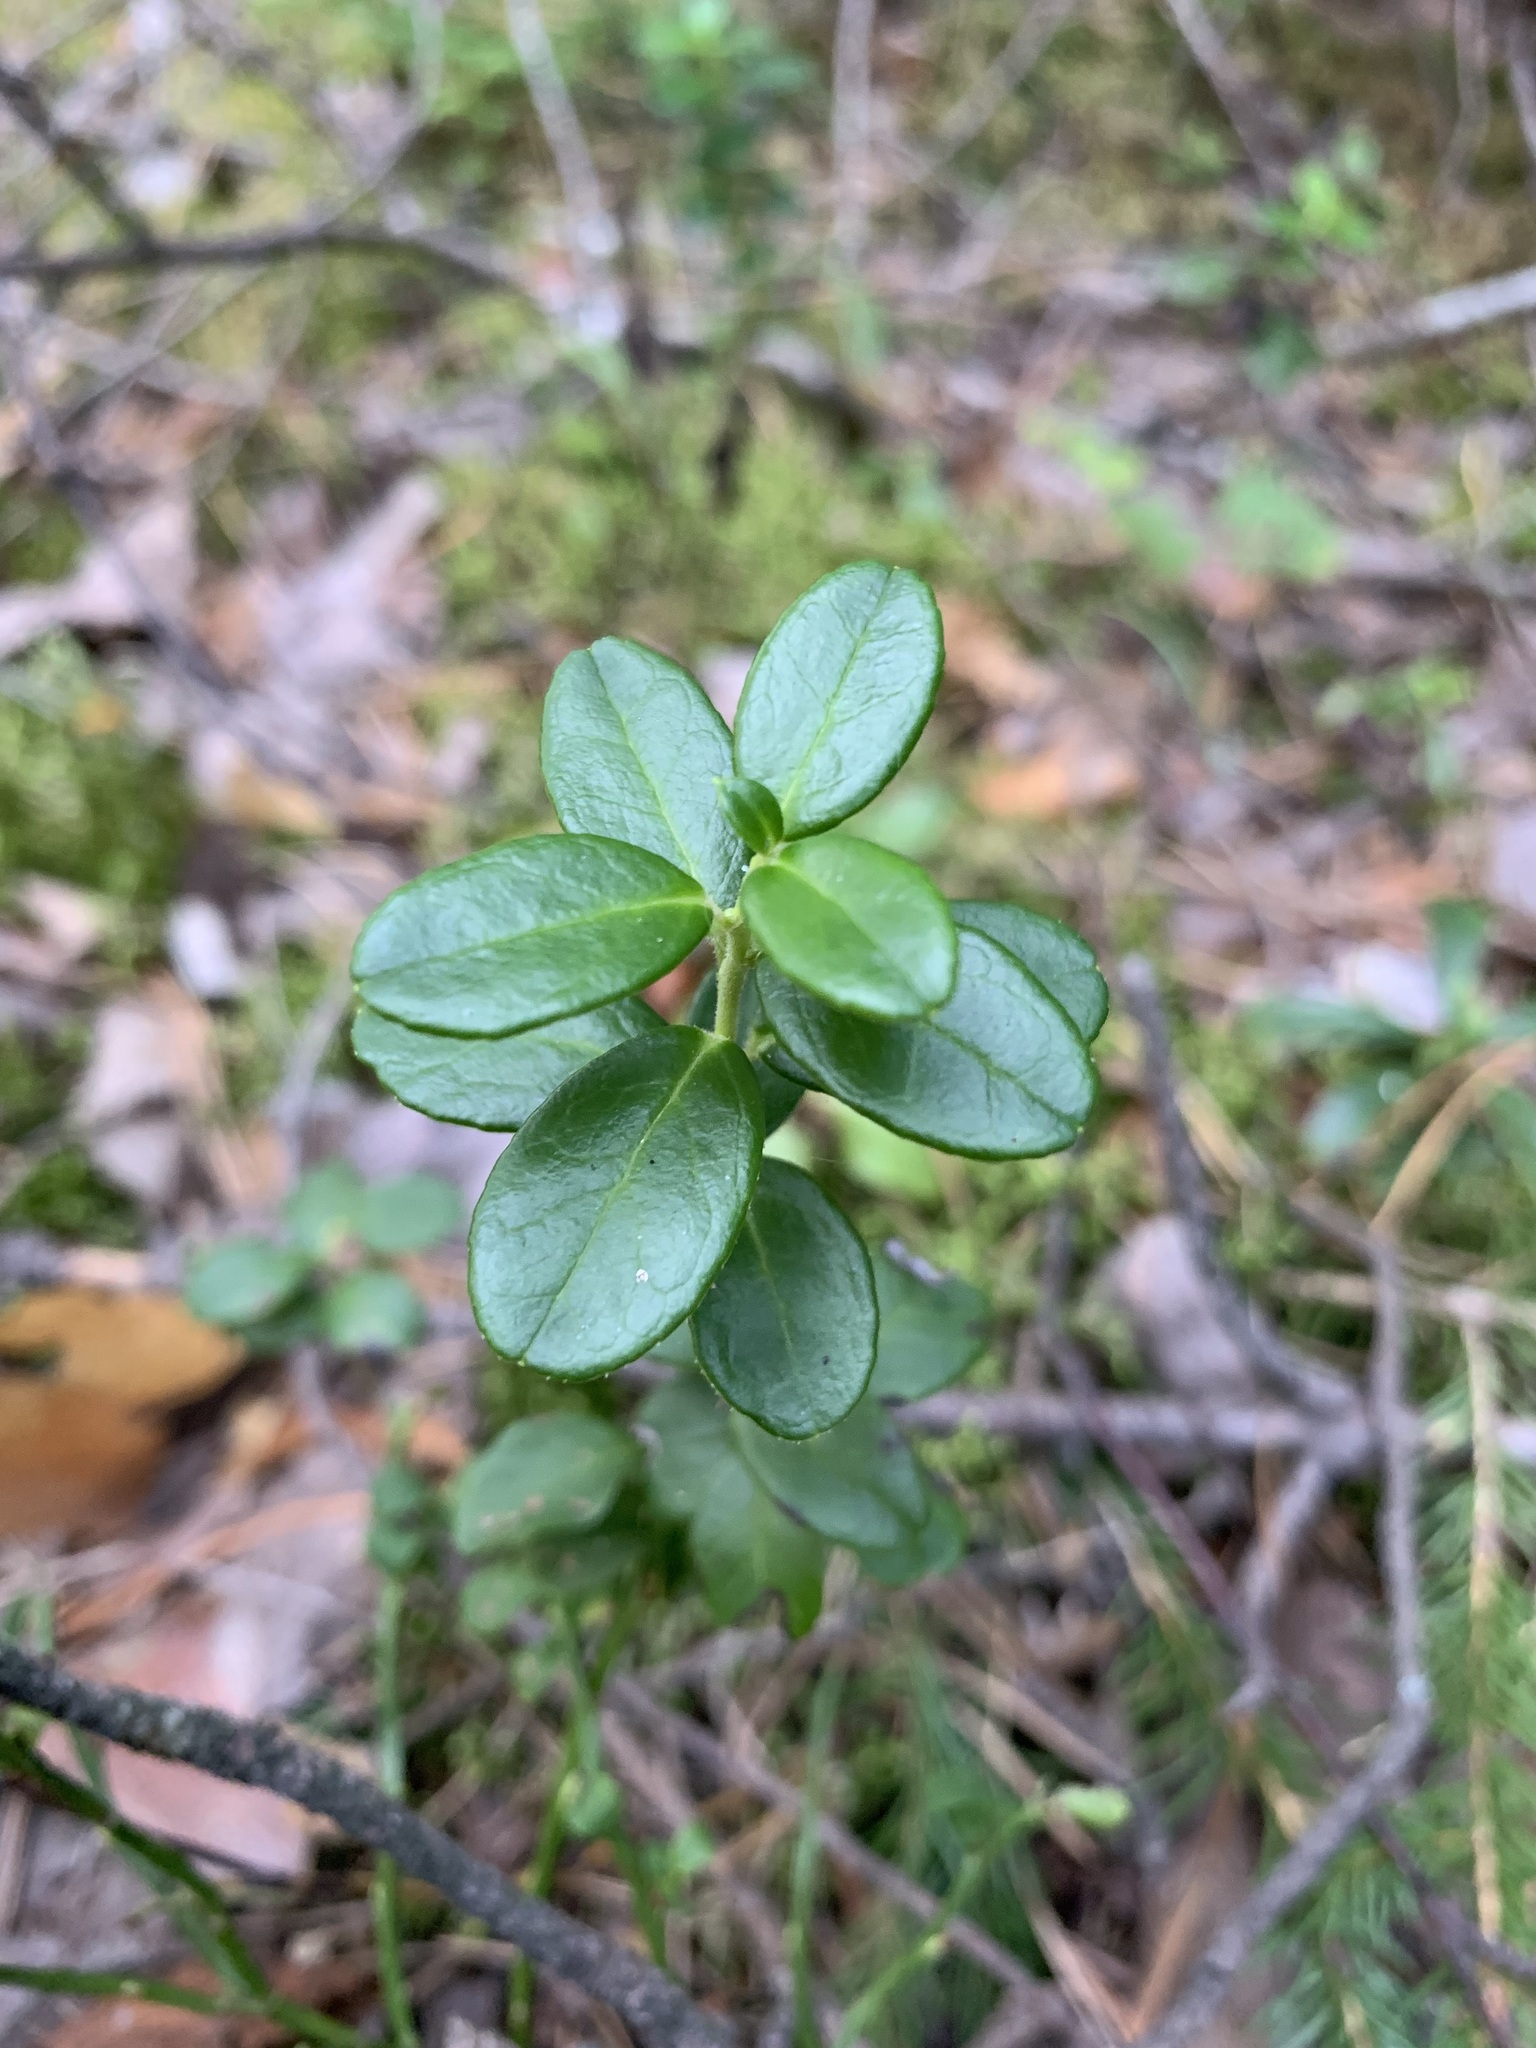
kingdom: Plantae
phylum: Tracheophyta
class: Magnoliopsida
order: Ericales
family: Ericaceae
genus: Vaccinium
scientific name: Vaccinium vitis-idaea
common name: Cowberry
